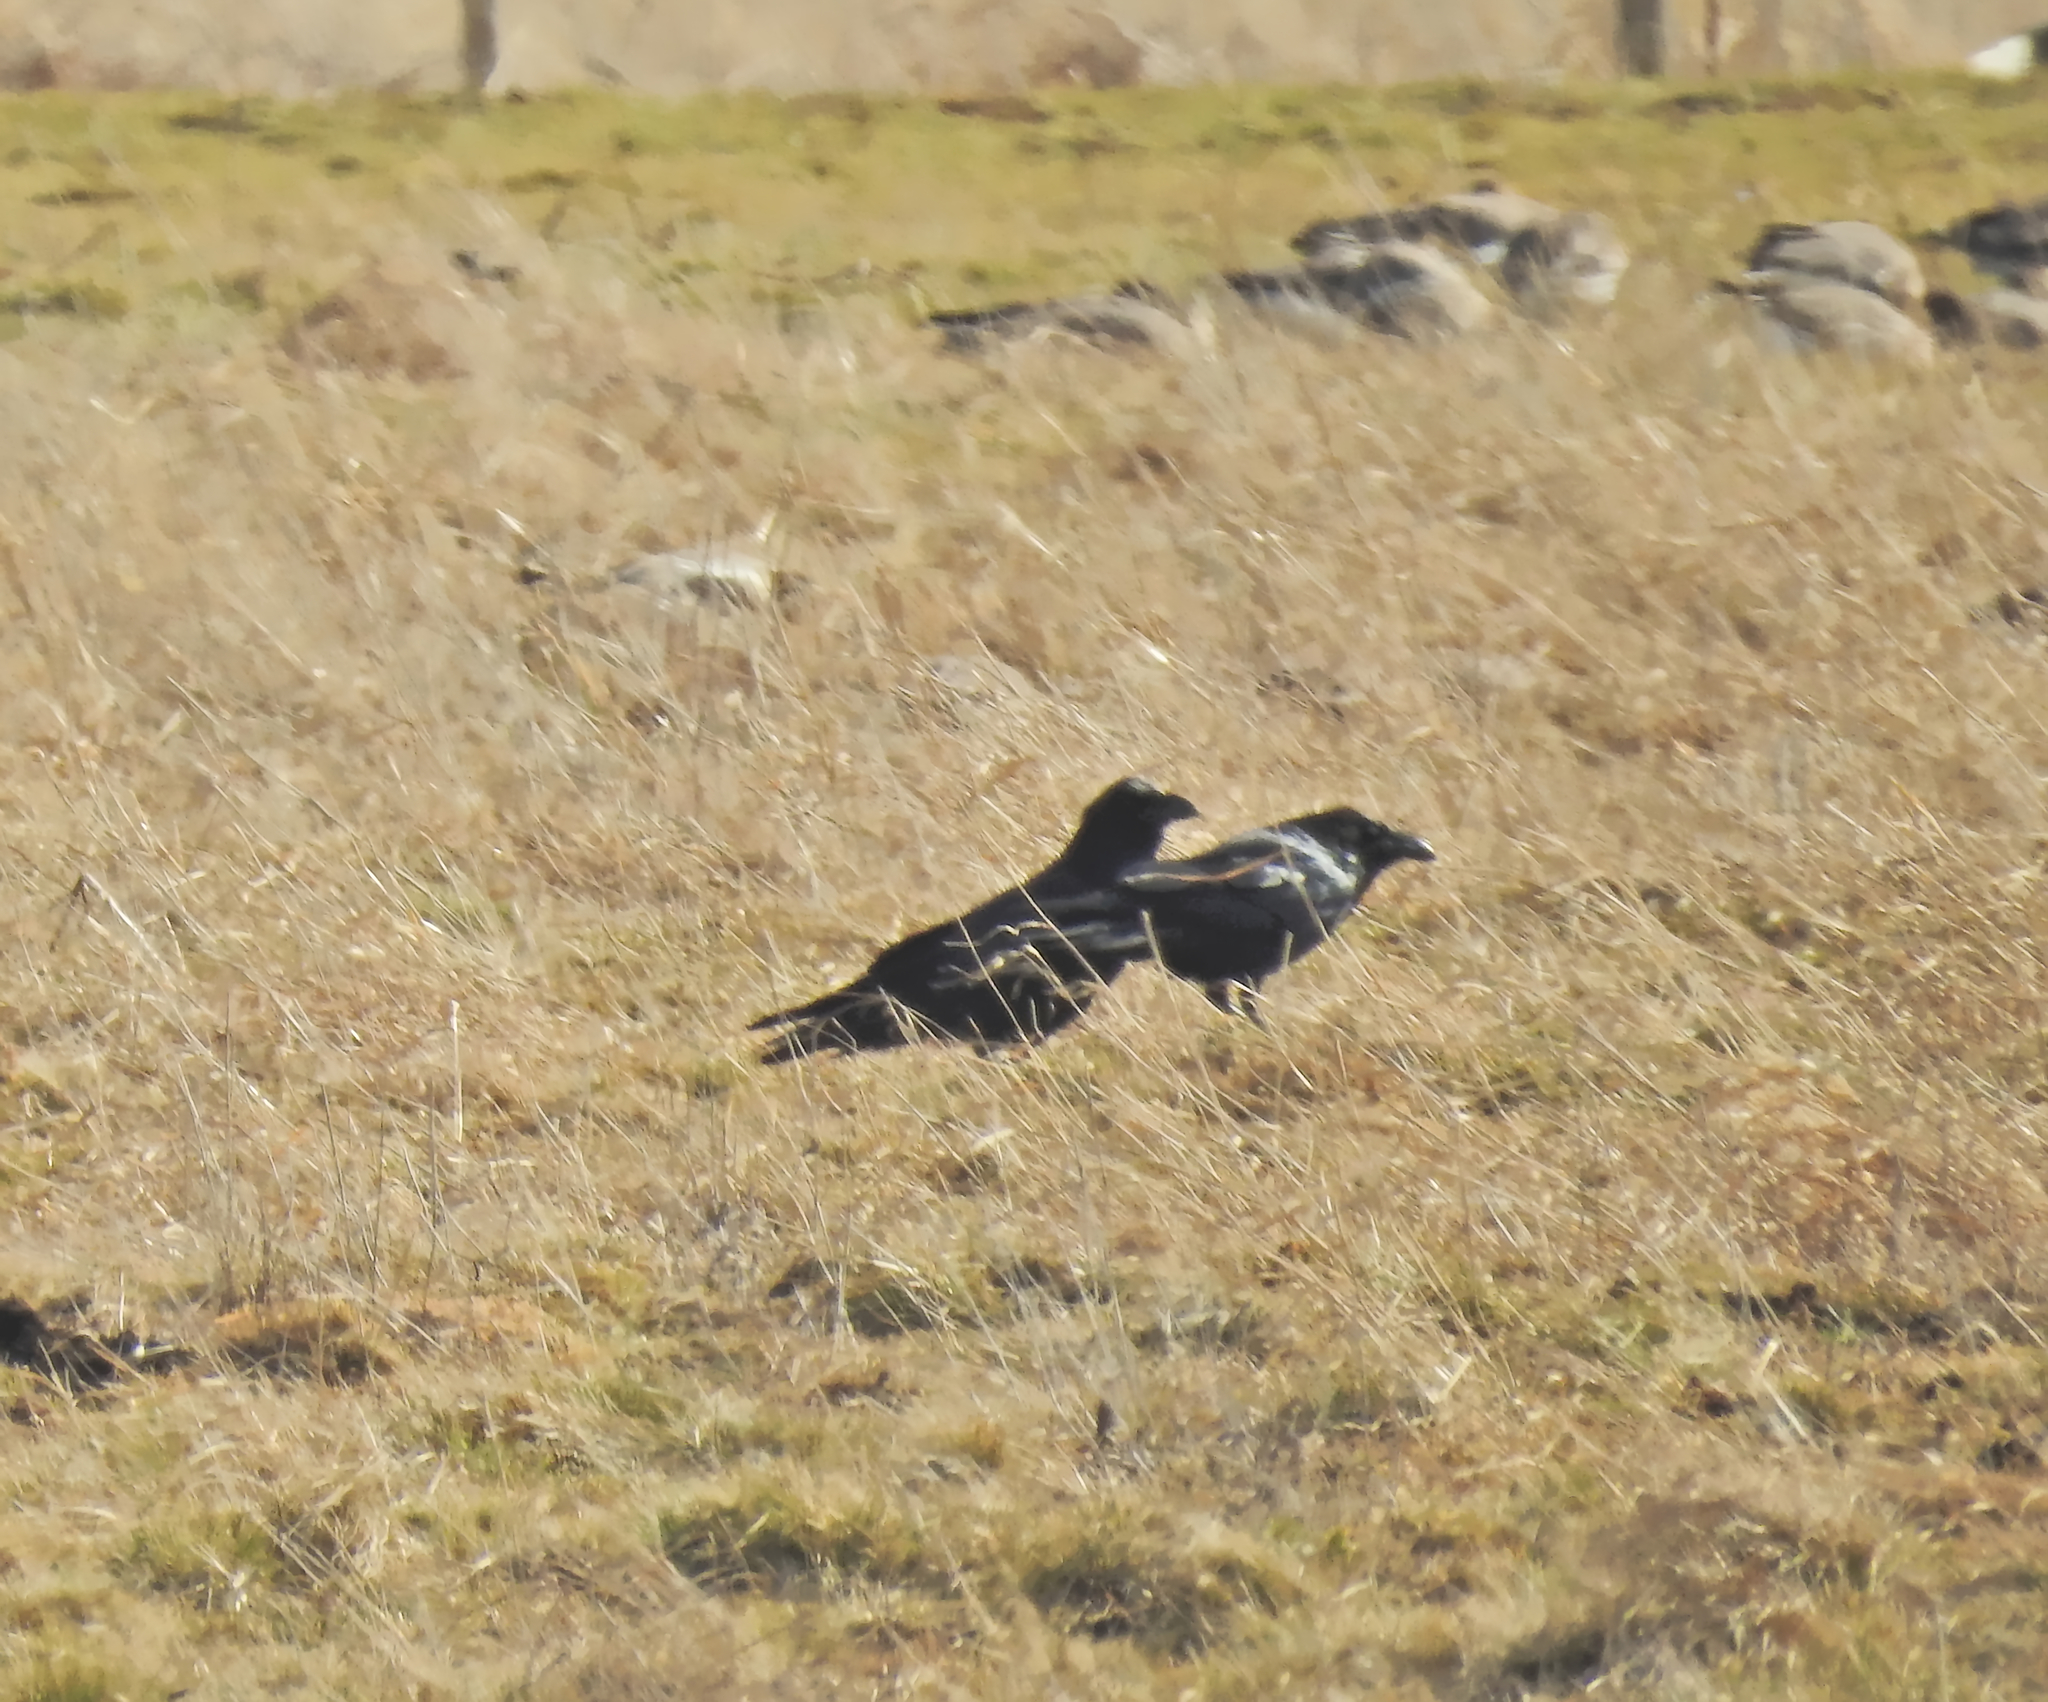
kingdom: Animalia
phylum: Chordata
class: Aves
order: Passeriformes
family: Corvidae
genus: Corvus
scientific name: Corvus corax
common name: Common raven
